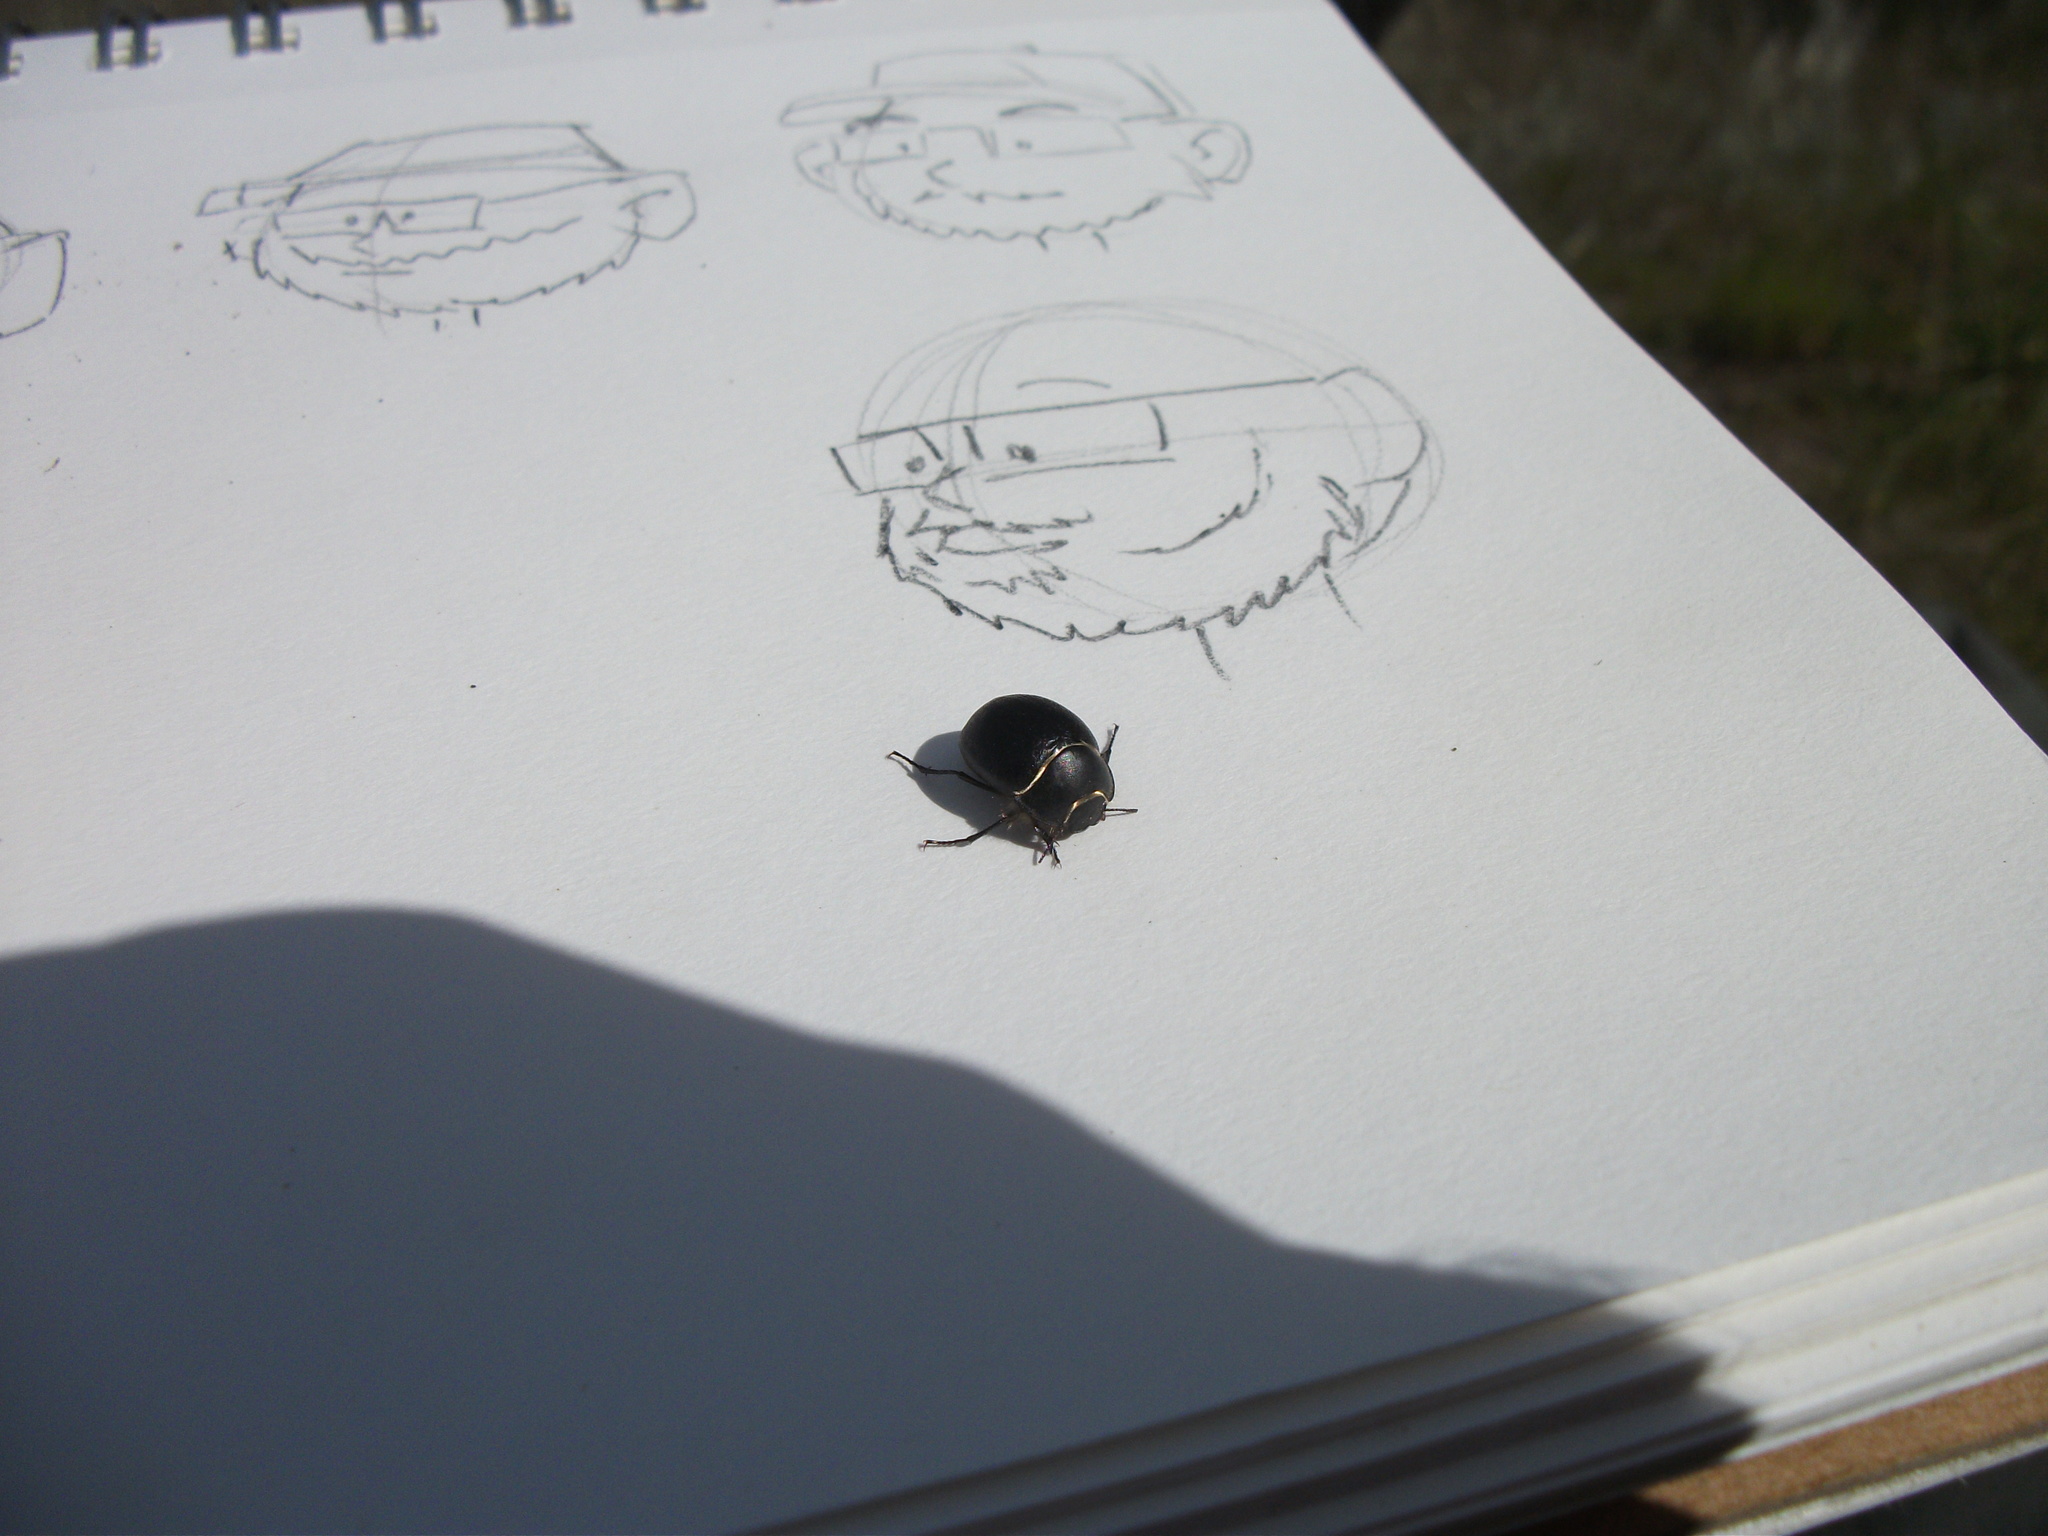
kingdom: Animalia
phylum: Arthropoda
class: Insecta
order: Coleoptera
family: Tenebrionidae
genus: Eusattus
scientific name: Eusattus muricatus
